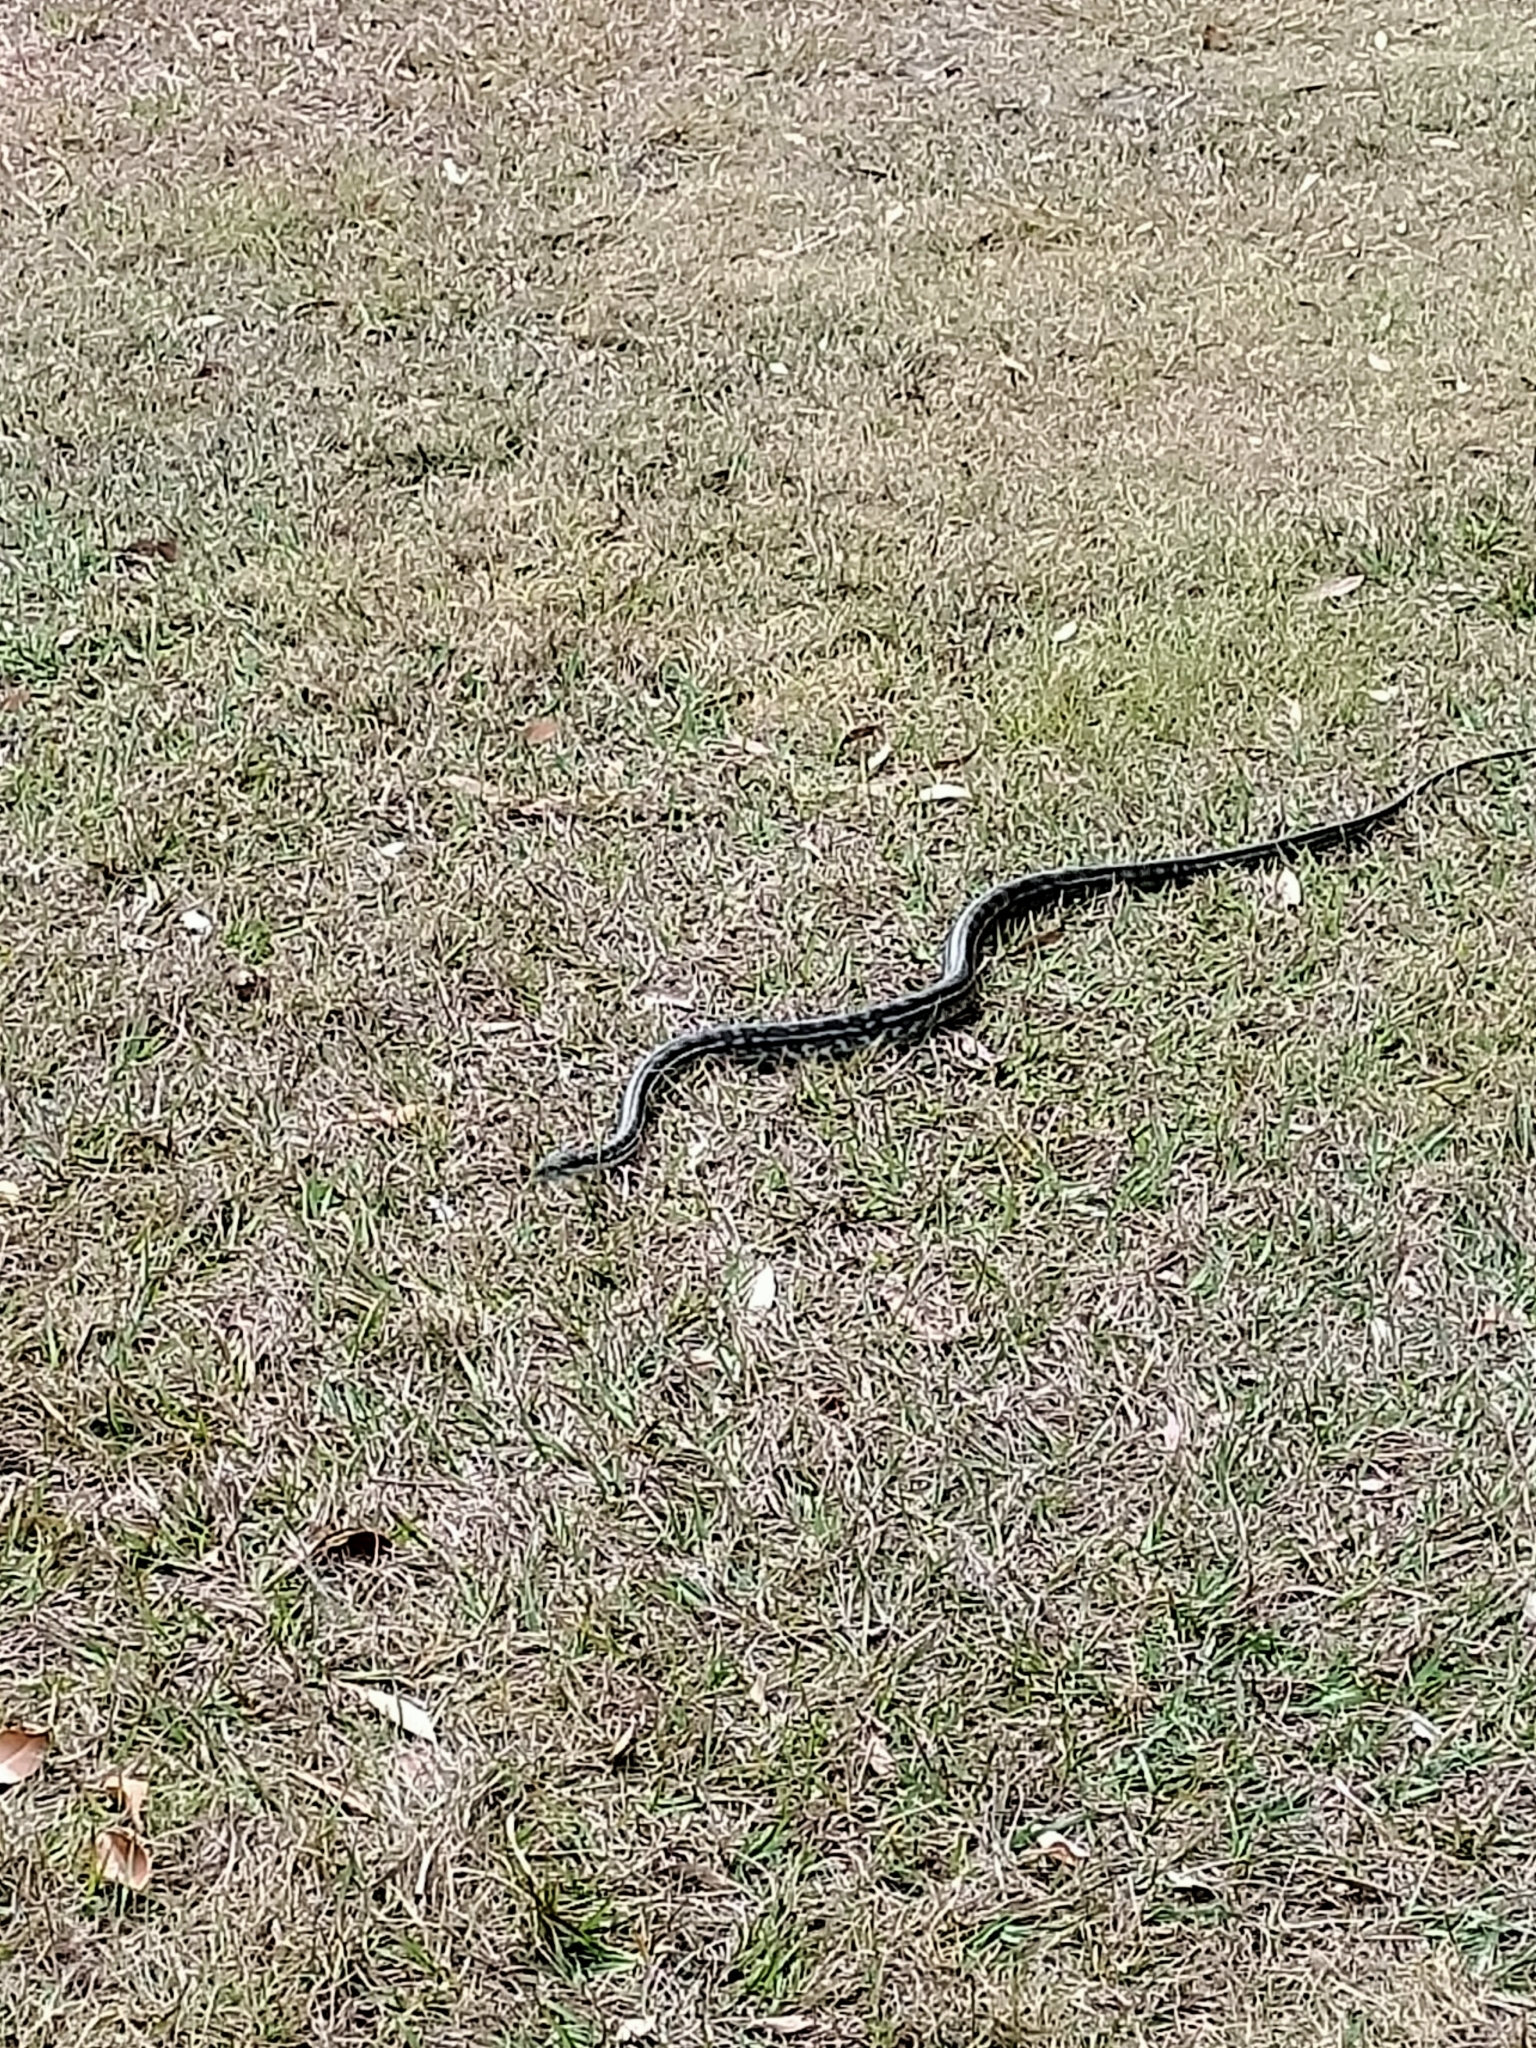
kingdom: Animalia
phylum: Chordata
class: Squamata
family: Pythonidae
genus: Morelia
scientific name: Morelia spilota
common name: Carpet python
